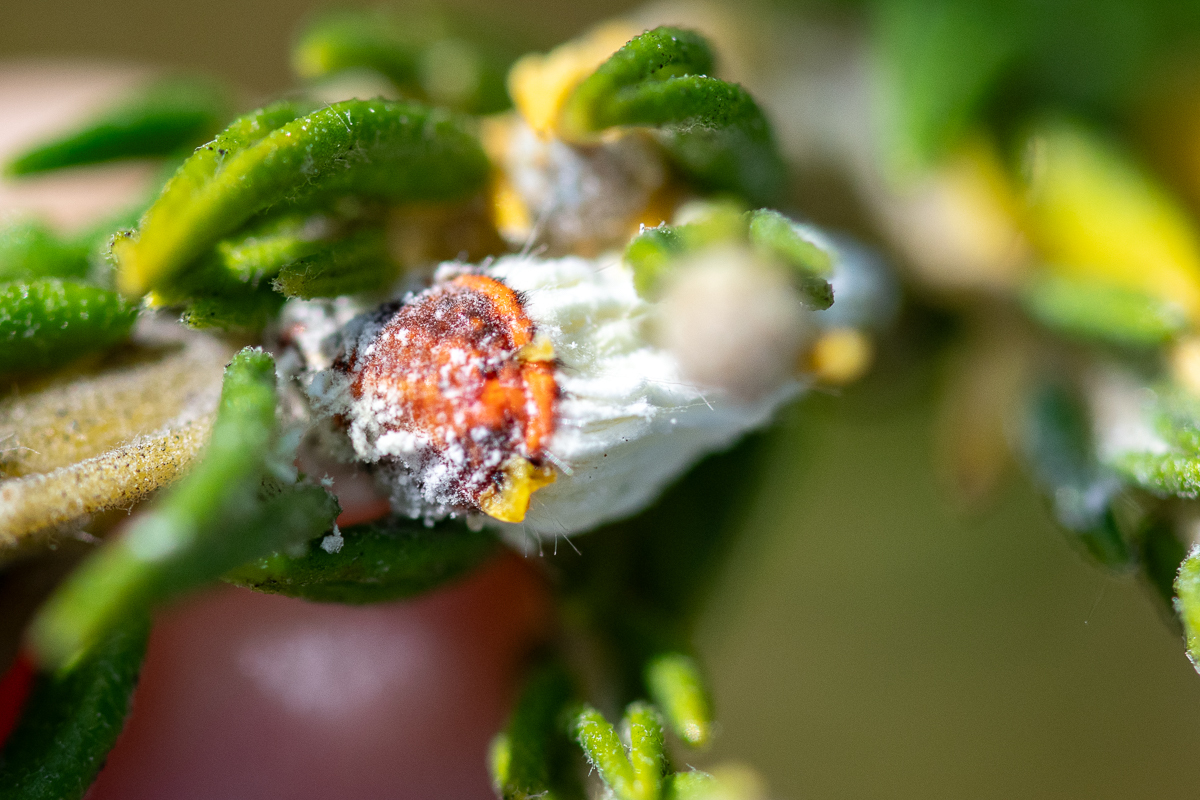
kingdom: Animalia
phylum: Arthropoda
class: Insecta
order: Hemiptera
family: Margarodidae
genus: Icerya
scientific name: Icerya purchasi
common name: Cottony cushion scale
